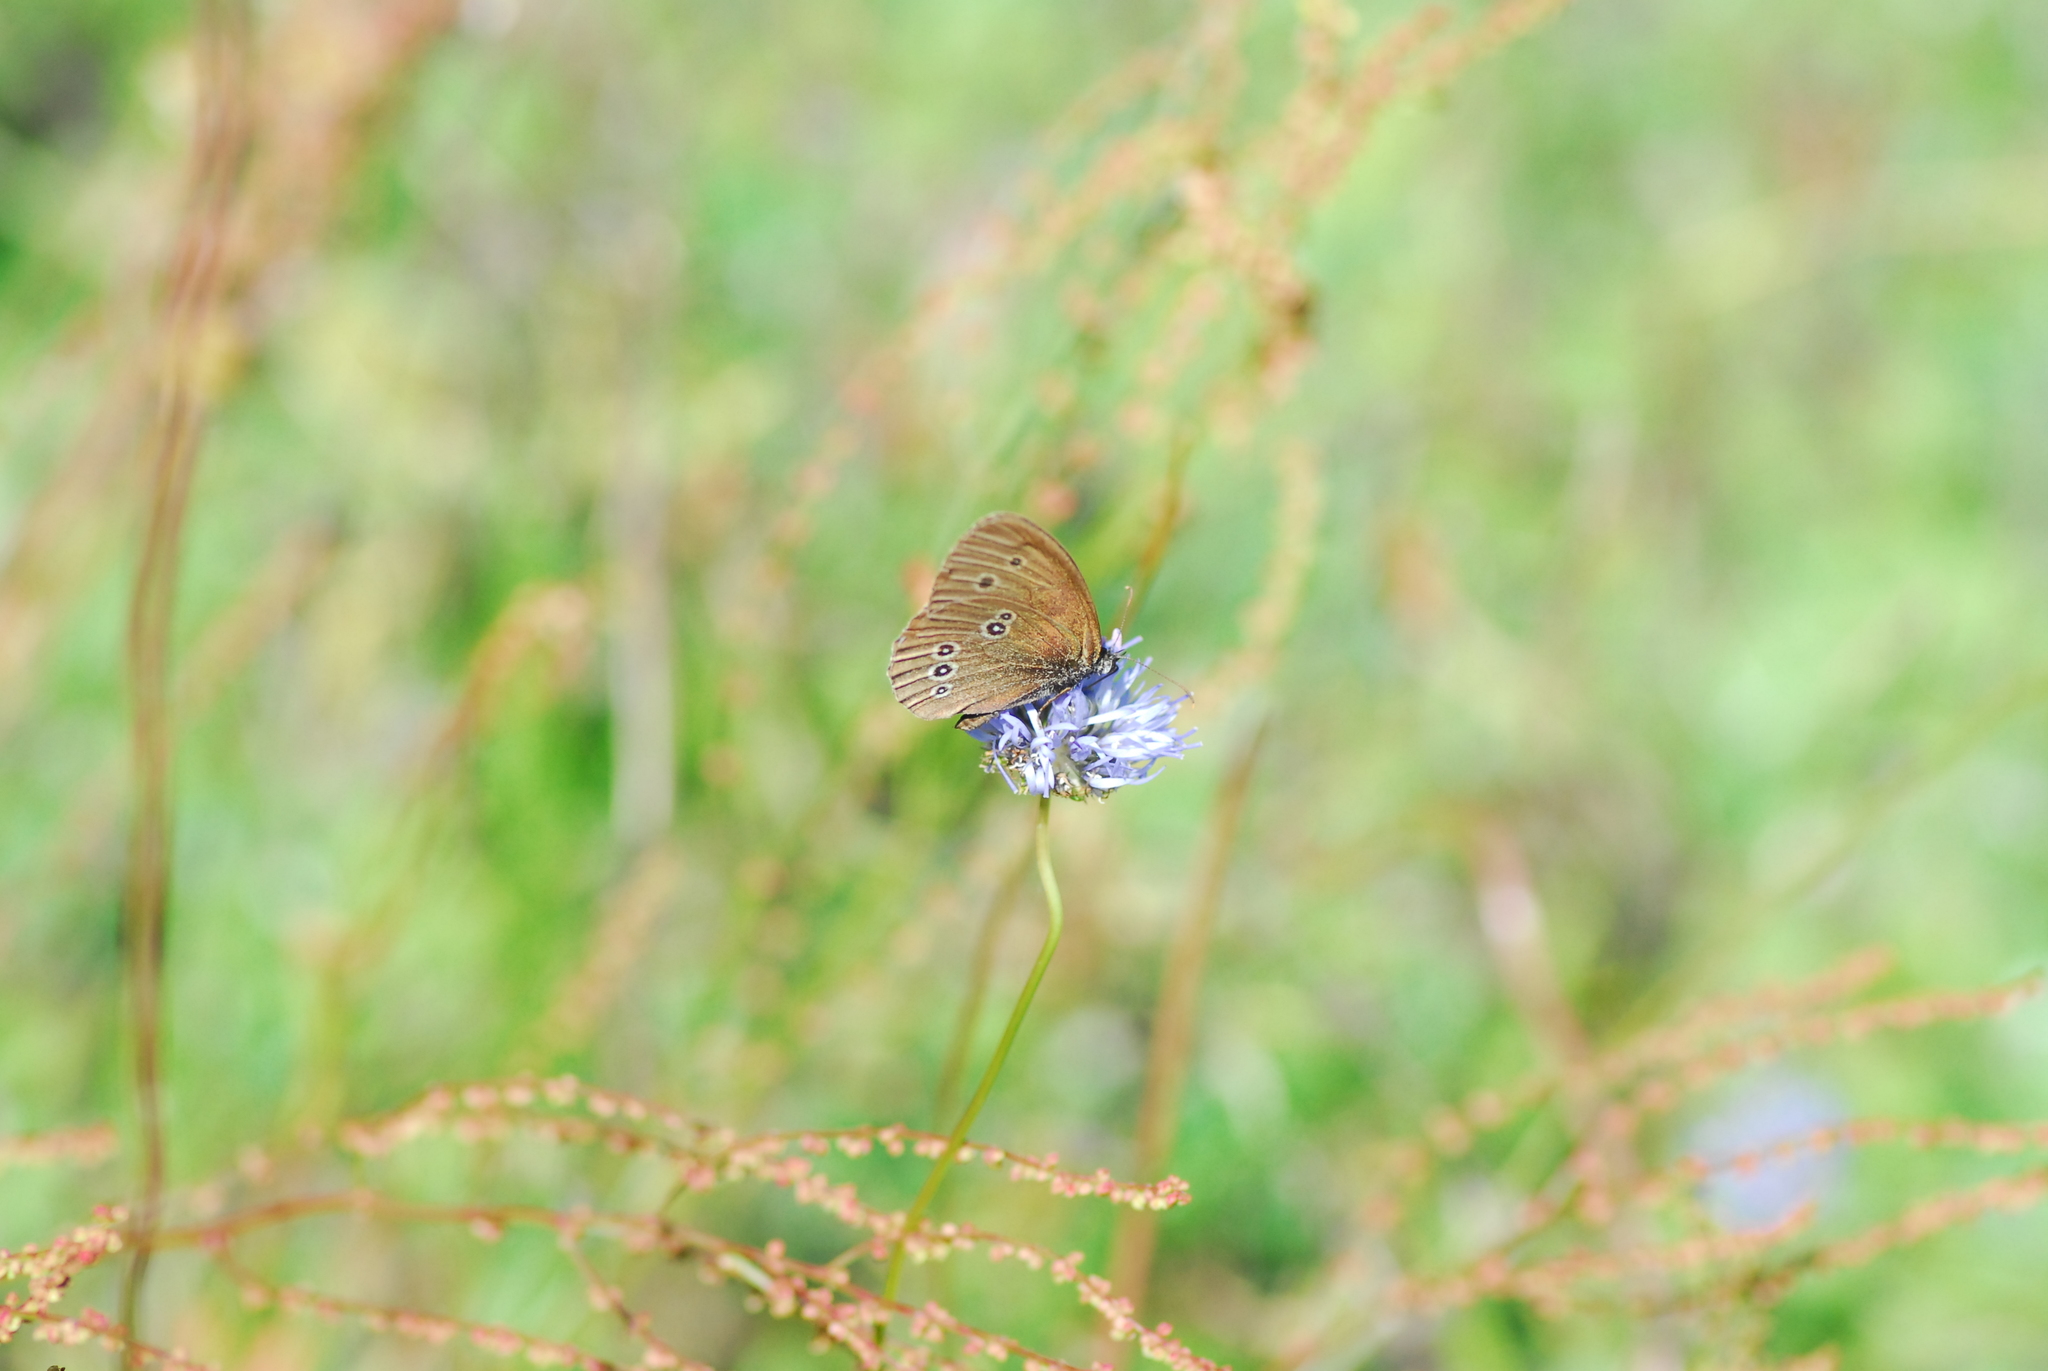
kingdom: Animalia
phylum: Arthropoda
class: Insecta
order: Lepidoptera
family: Nymphalidae
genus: Aphantopus
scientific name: Aphantopus hyperantus
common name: Ringlet
